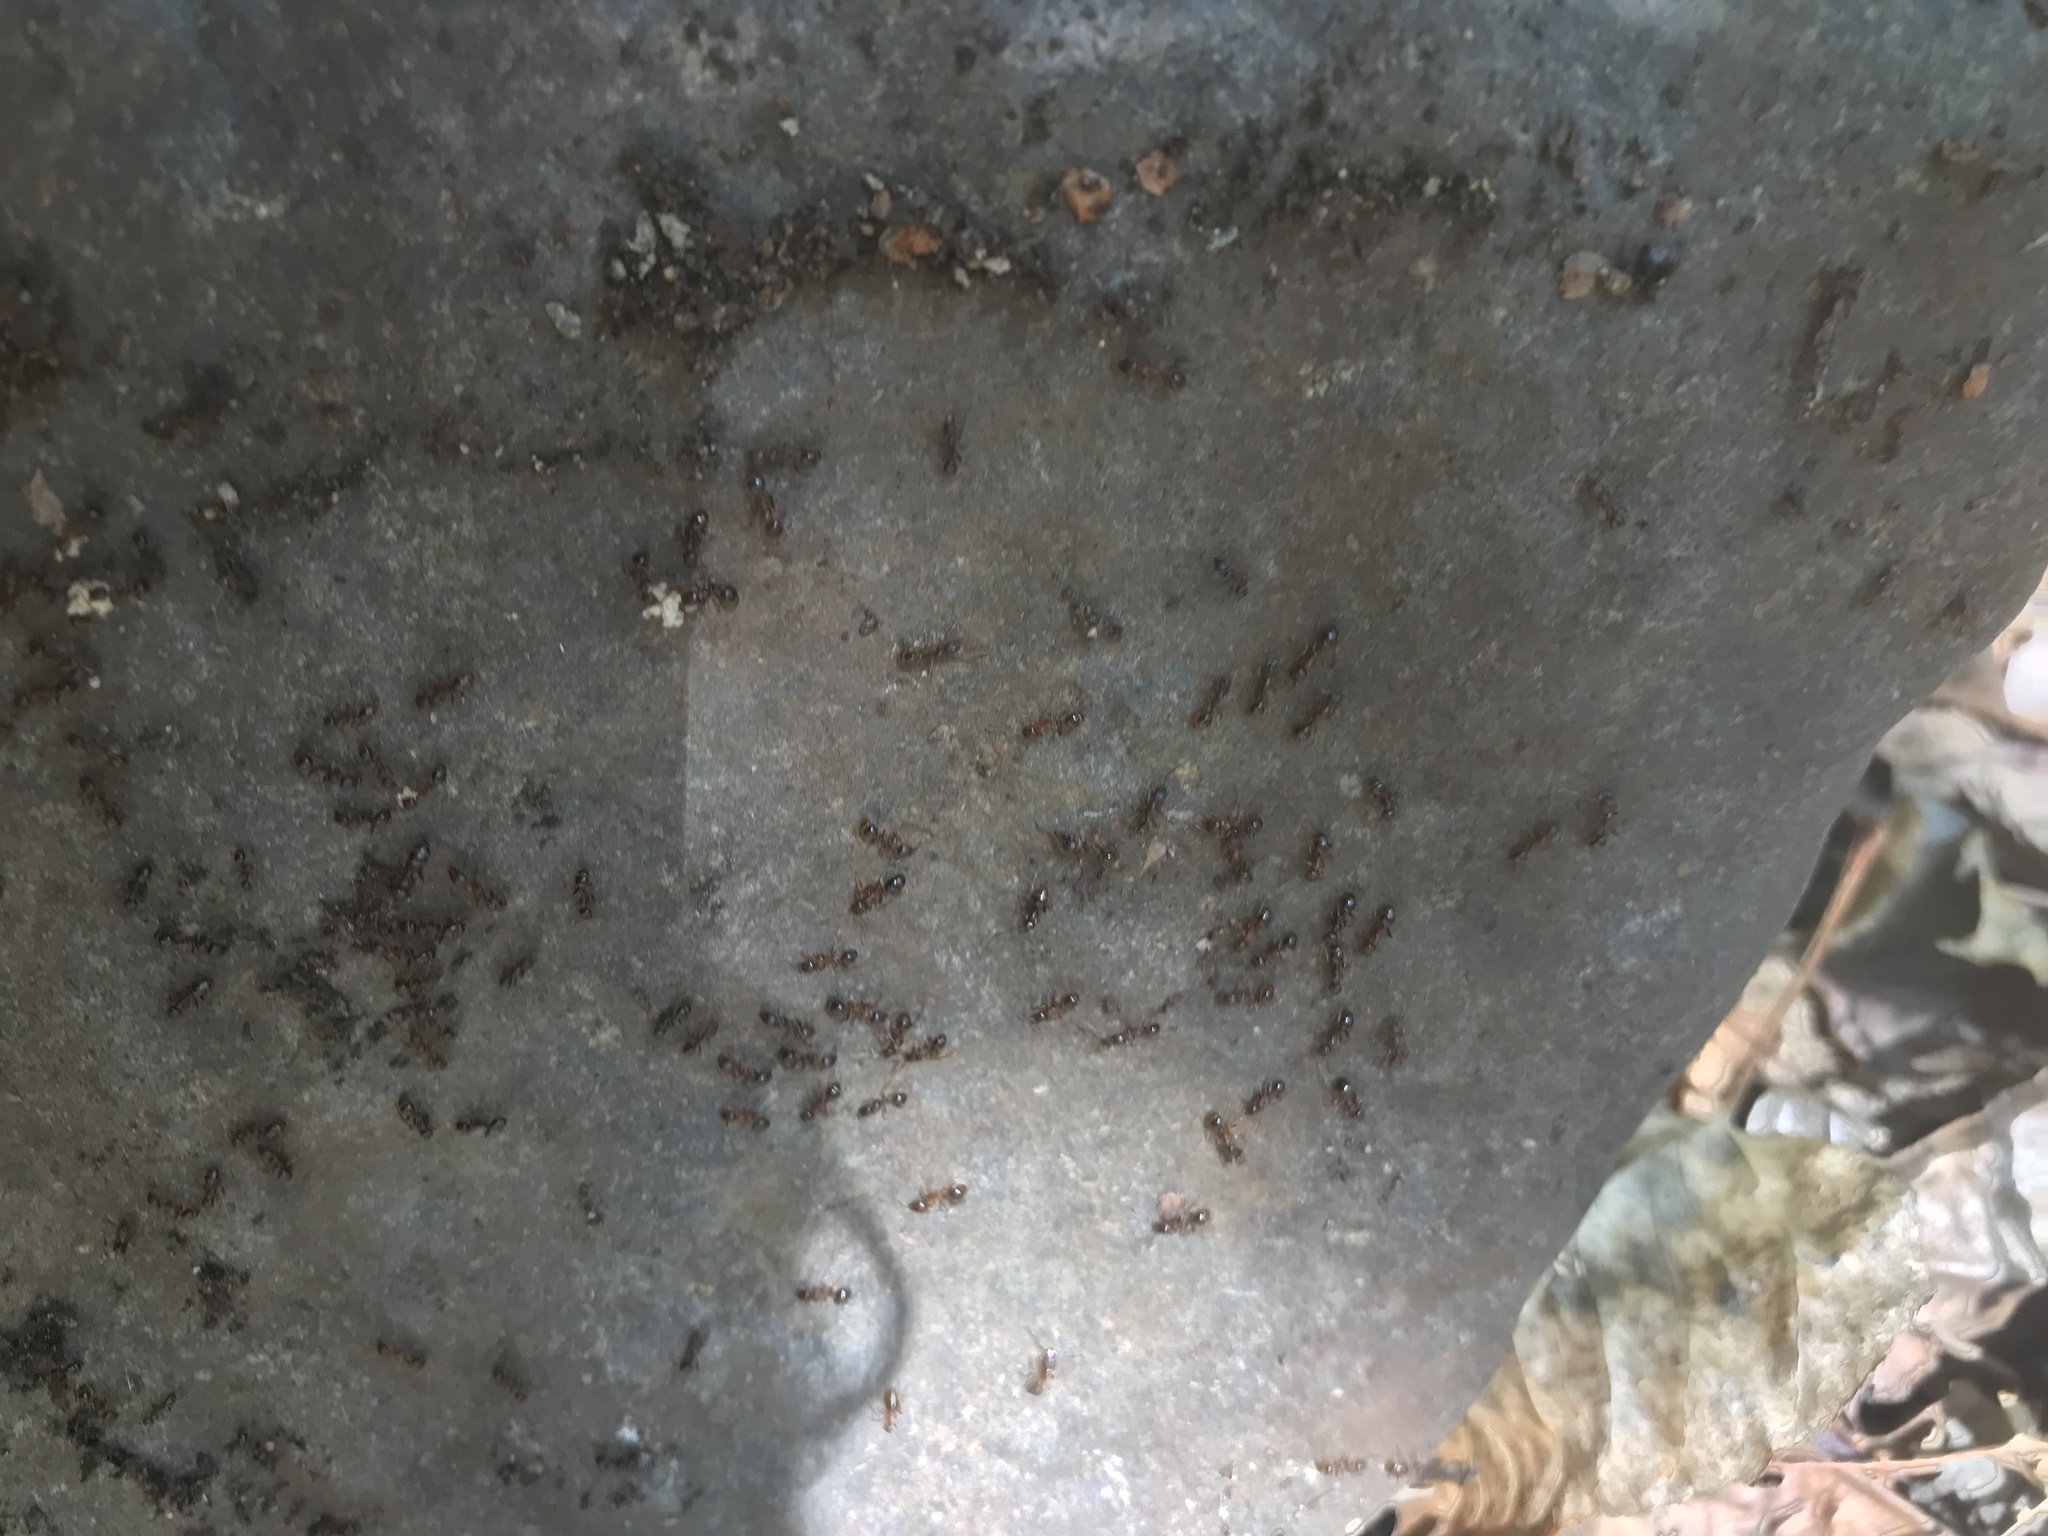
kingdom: Animalia
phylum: Arthropoda
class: Insecta
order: Hymenoptera
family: Formicidae
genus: Aphaenogaster
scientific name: Aphaenogaster occidentalis
